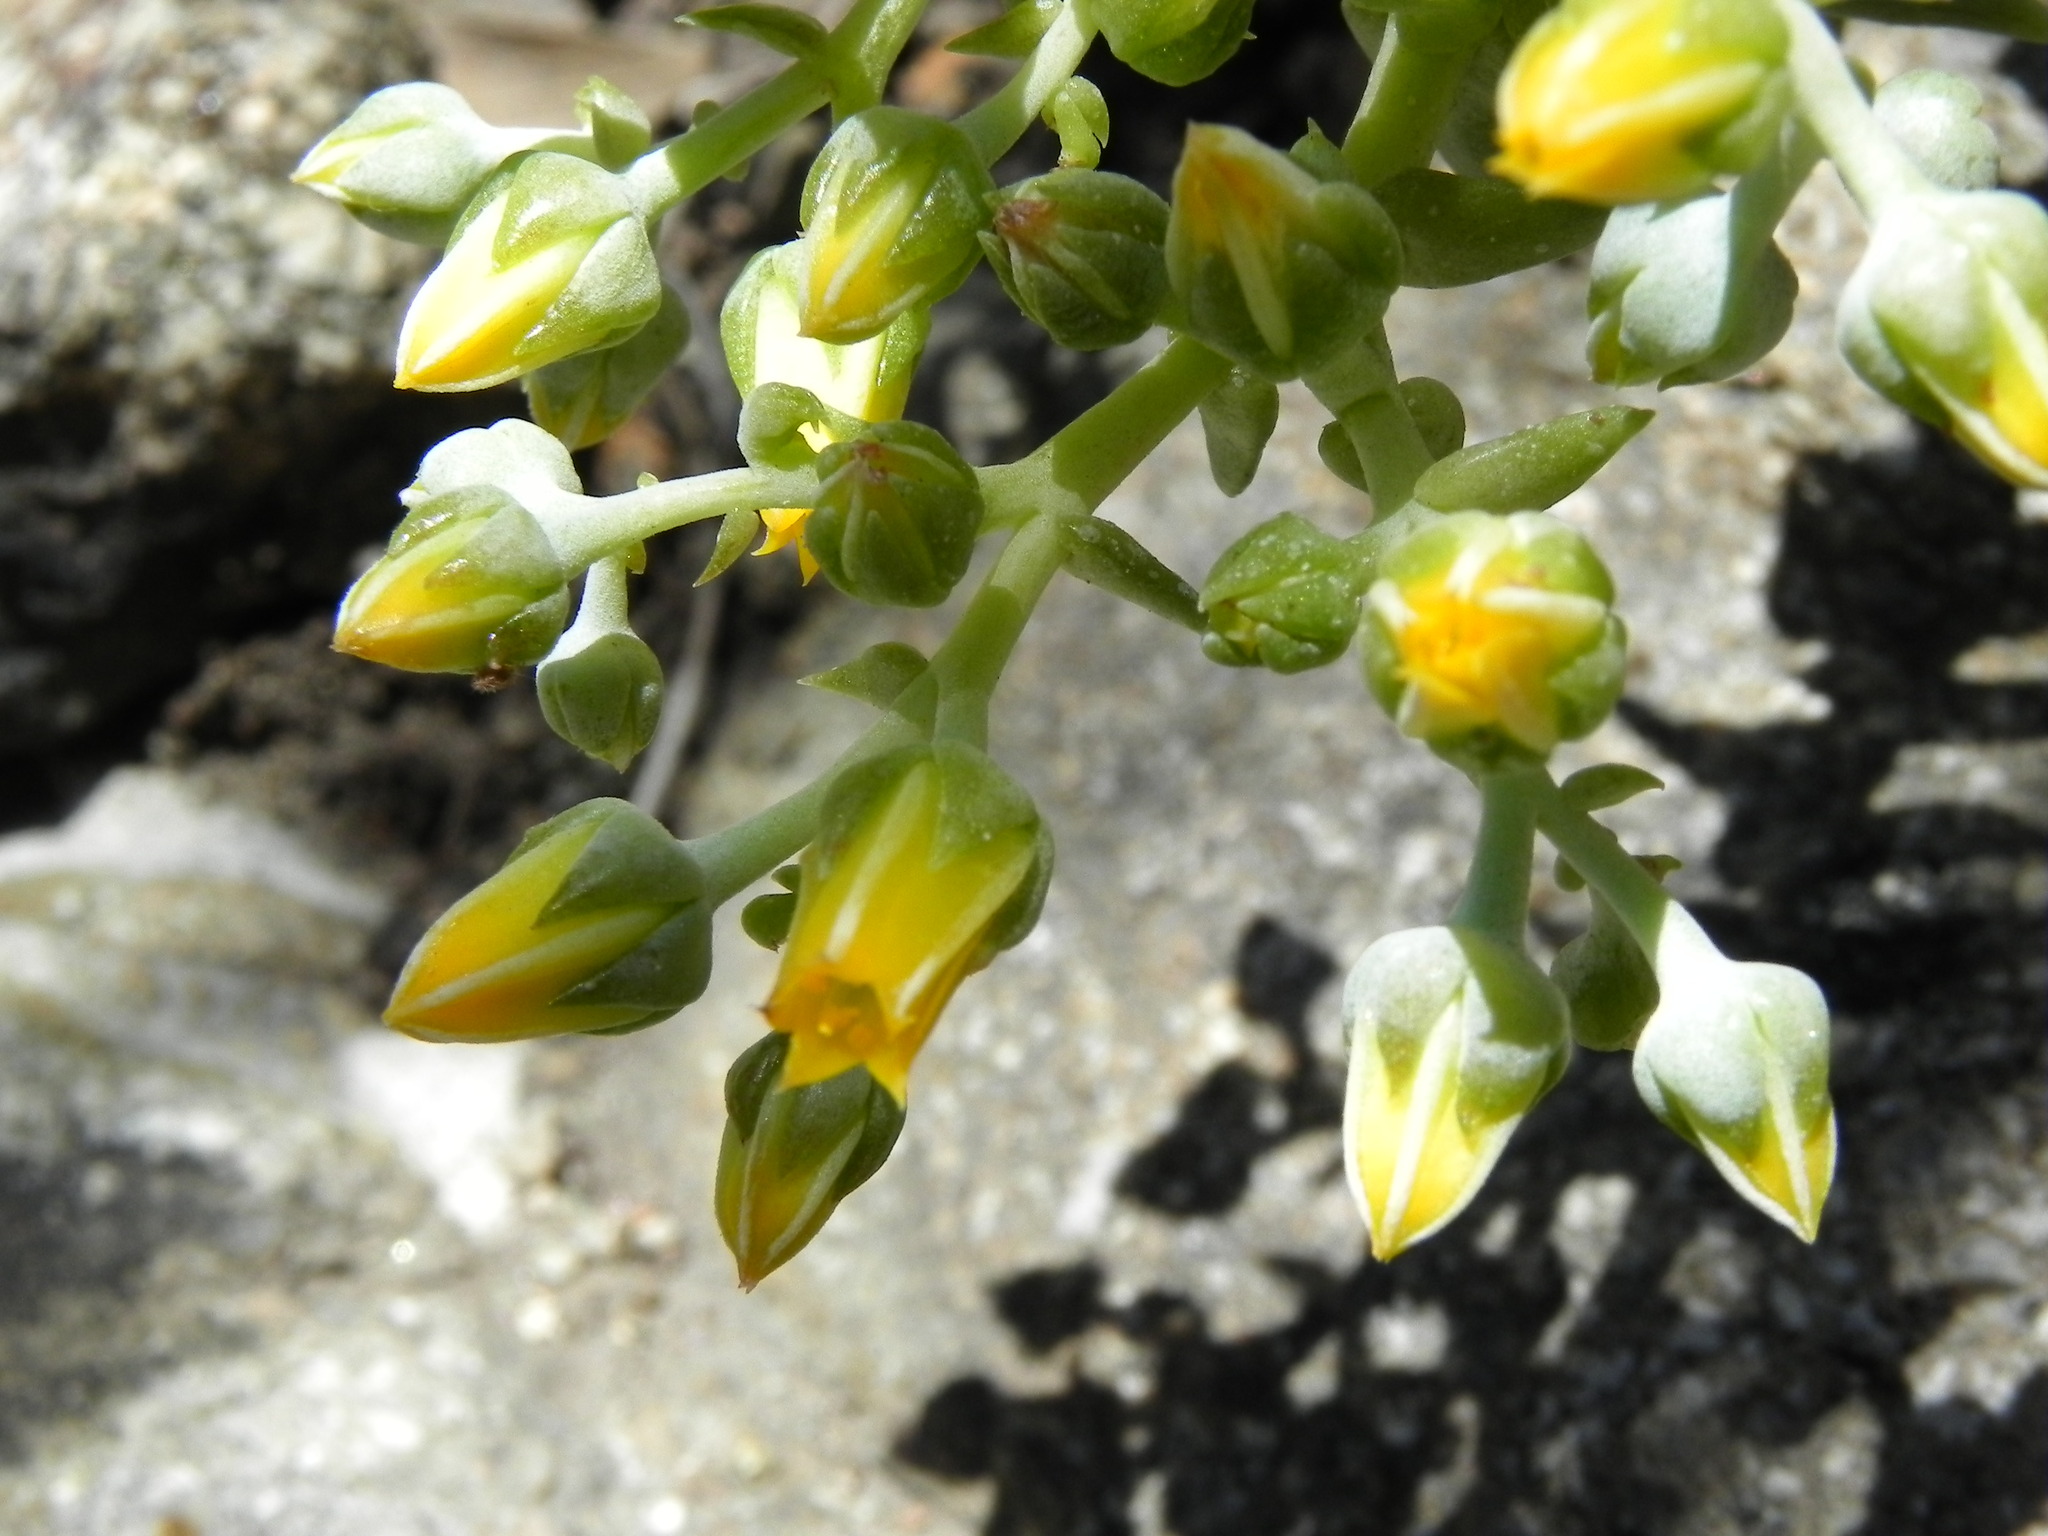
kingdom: Plantae
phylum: Tracheophyta
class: Magnoliopsida
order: Saxifragales
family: Crassulaceae
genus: Dudleya
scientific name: Dudleya cymosa
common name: Canyon dudleya
